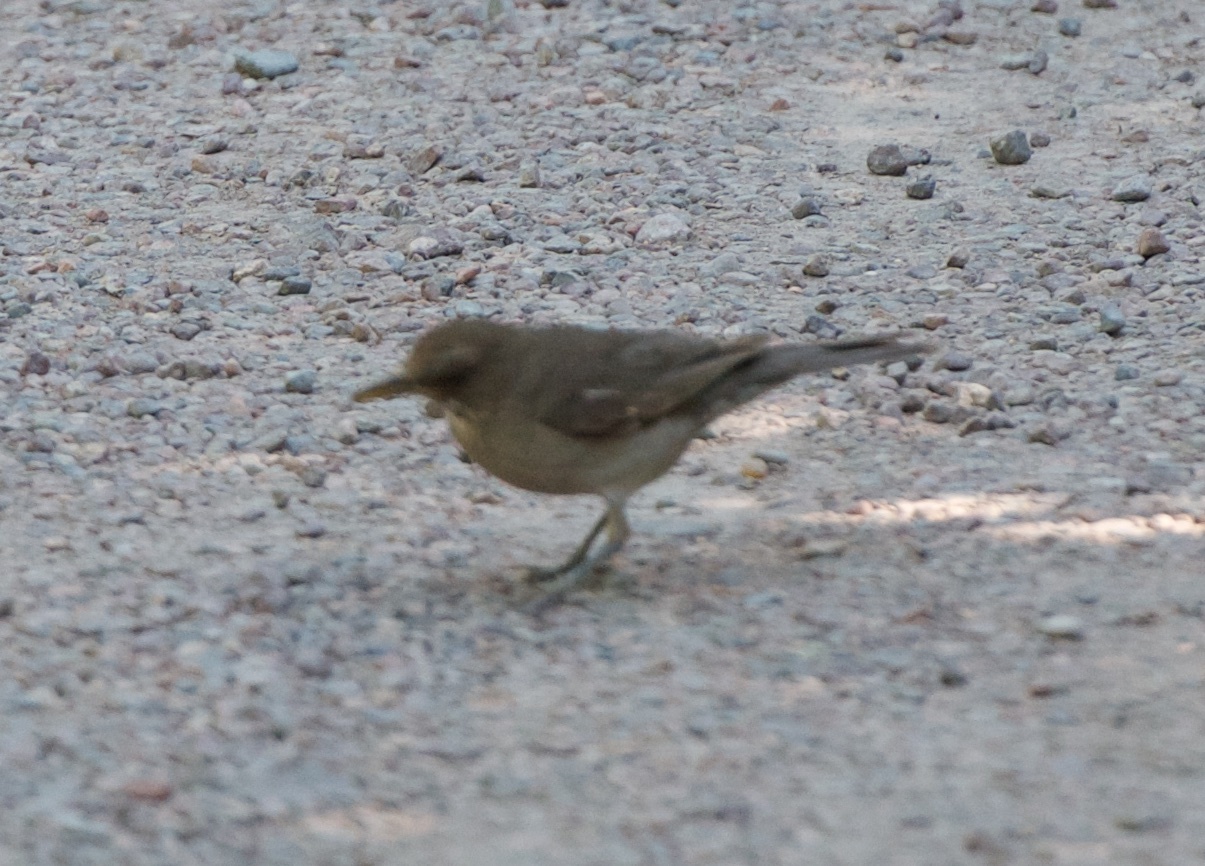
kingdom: Animalia
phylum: Chordata
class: Aves
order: Passeriformes
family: Turdidae
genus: Turdus
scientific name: Turdus amaurochalinus
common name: Creamy-bellied thrush
